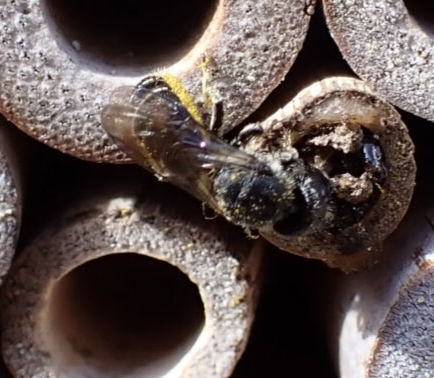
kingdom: Animalia
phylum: Arthropoda
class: Insecta
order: Hymenoptera
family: Megachilidae
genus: Heriades
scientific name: Heriades truncorum
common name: Ridge-saddled carpenter bee
